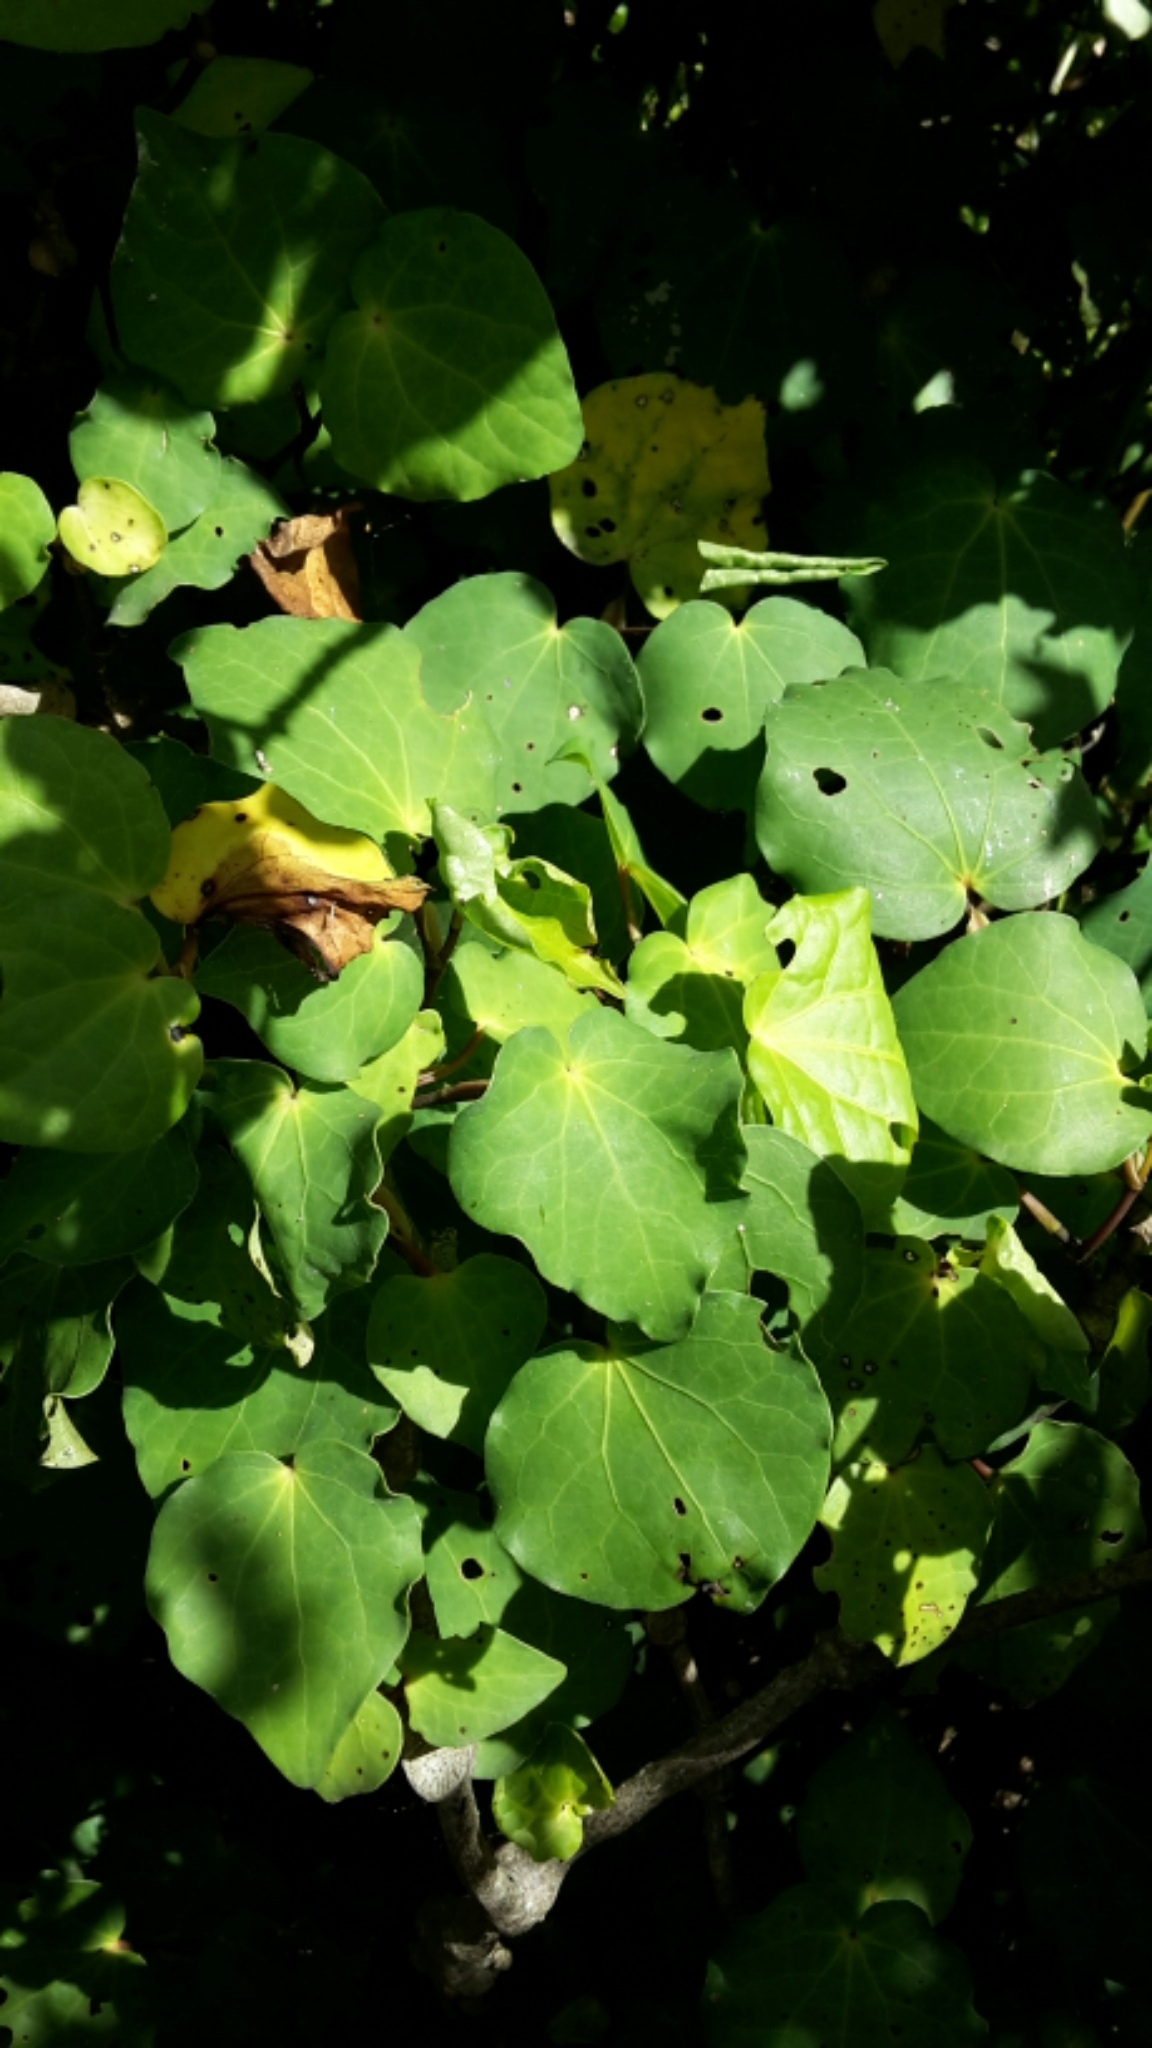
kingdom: Plantae
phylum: Tracheophyta
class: Magnoliopsida
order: Piperales
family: Piperaceae
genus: Macropiper
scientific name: Macropiper excelsum
